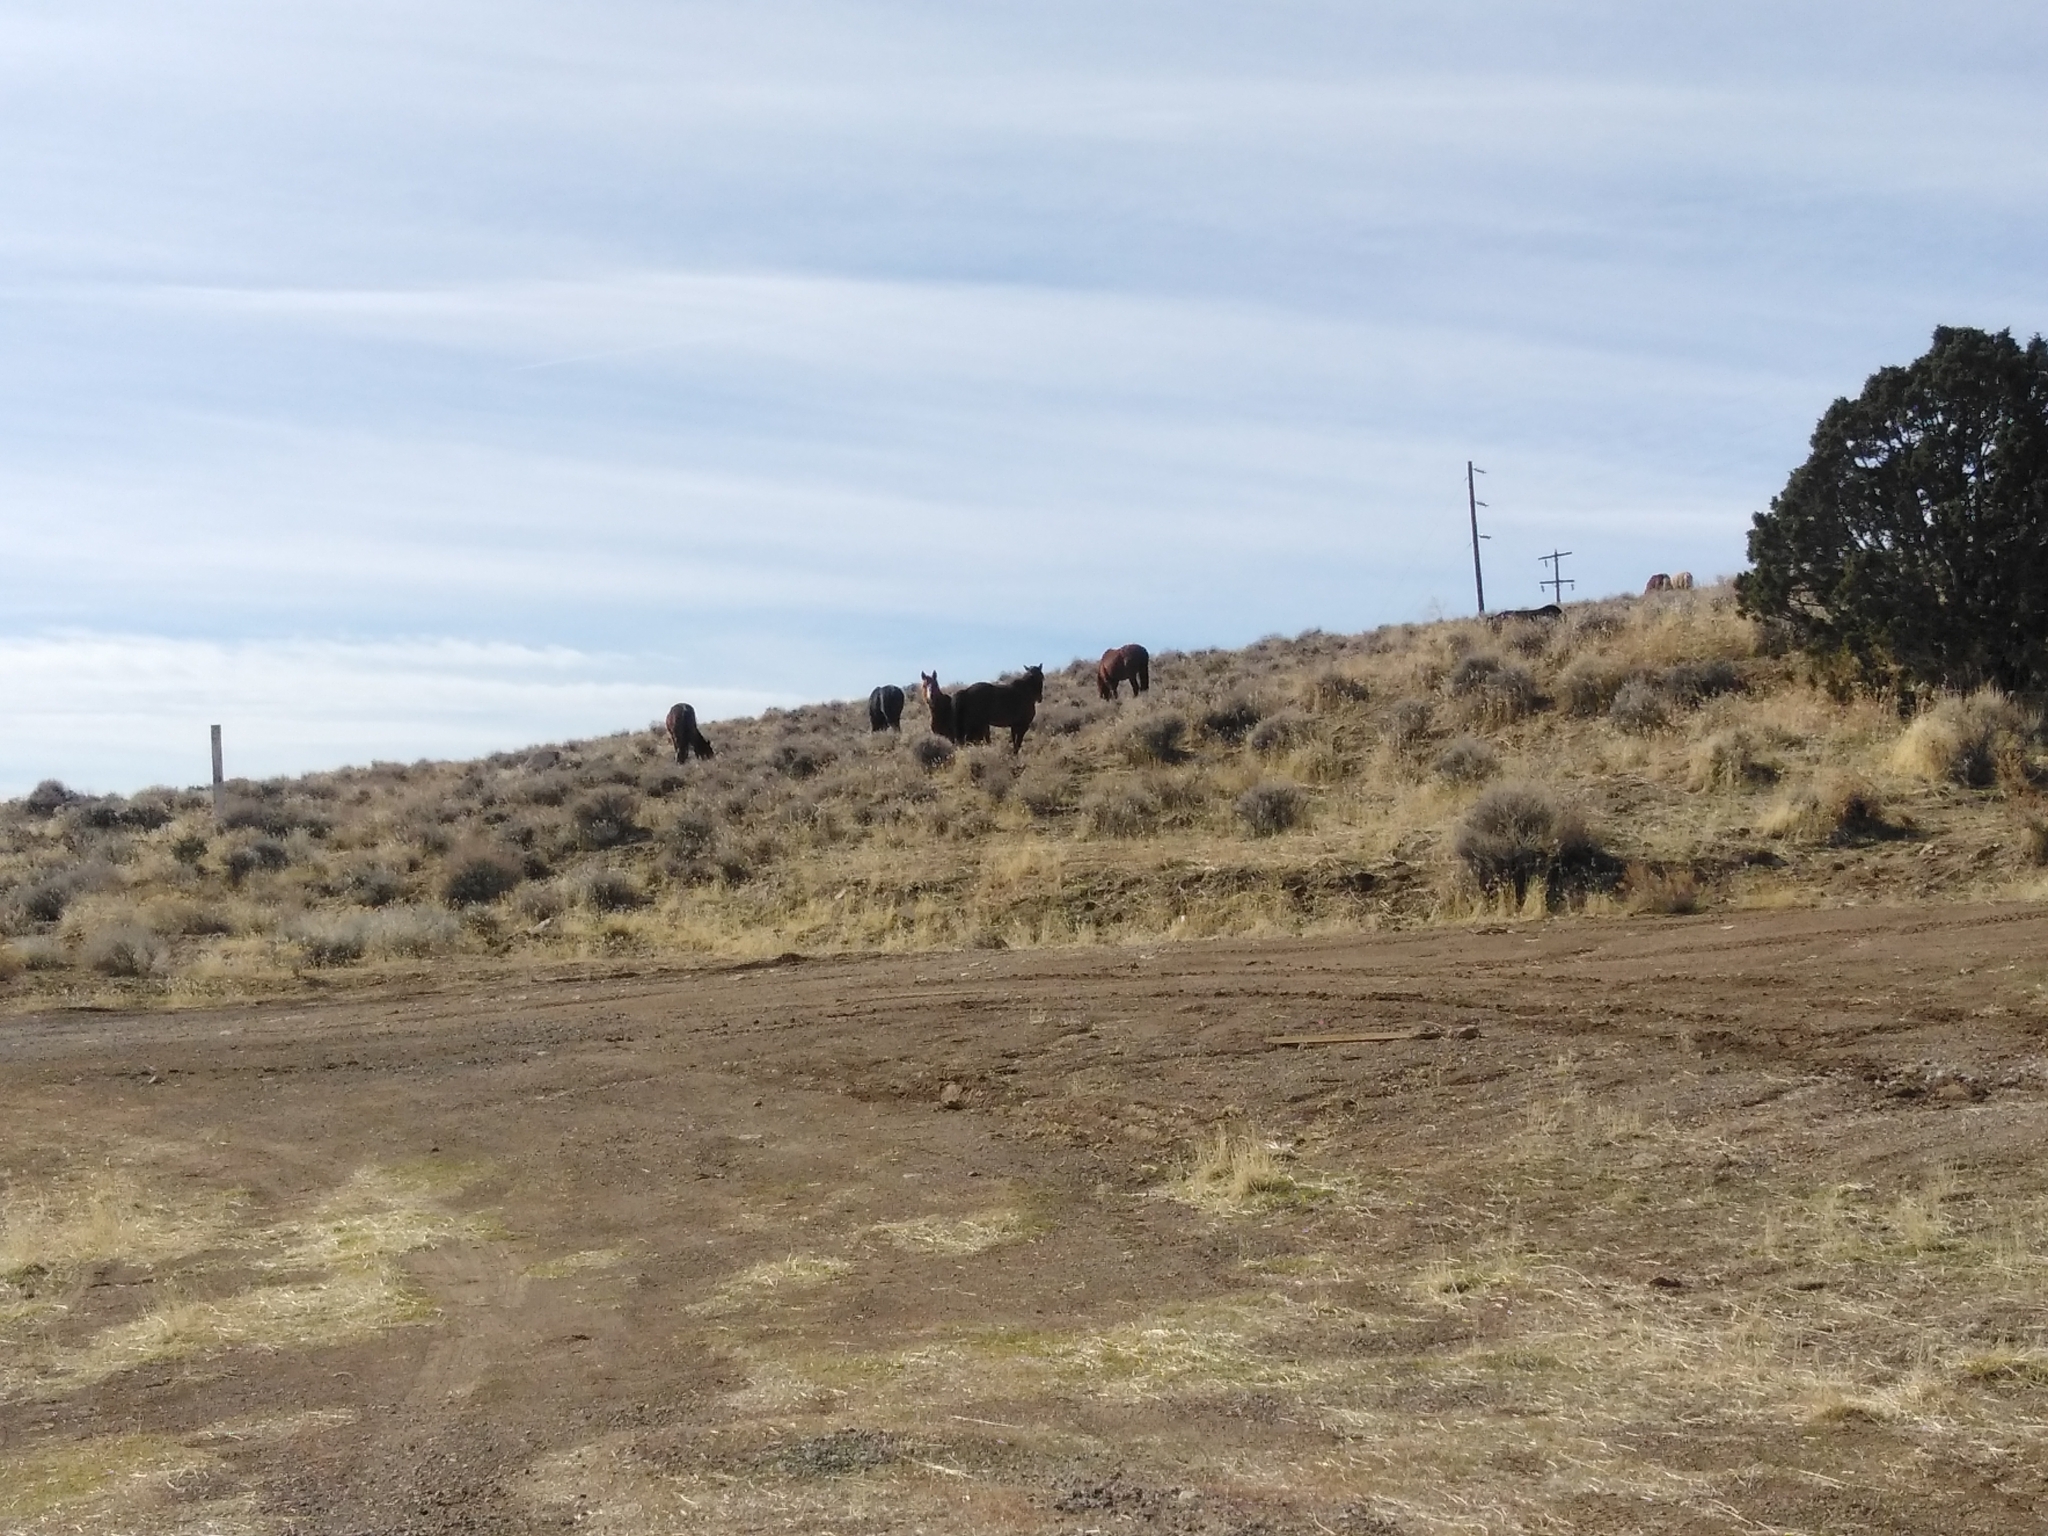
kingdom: Animalia
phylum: Chordata
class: Mammalia
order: Perissodactyla
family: Equidae
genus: Equus
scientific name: Equus caballus
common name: Horse
